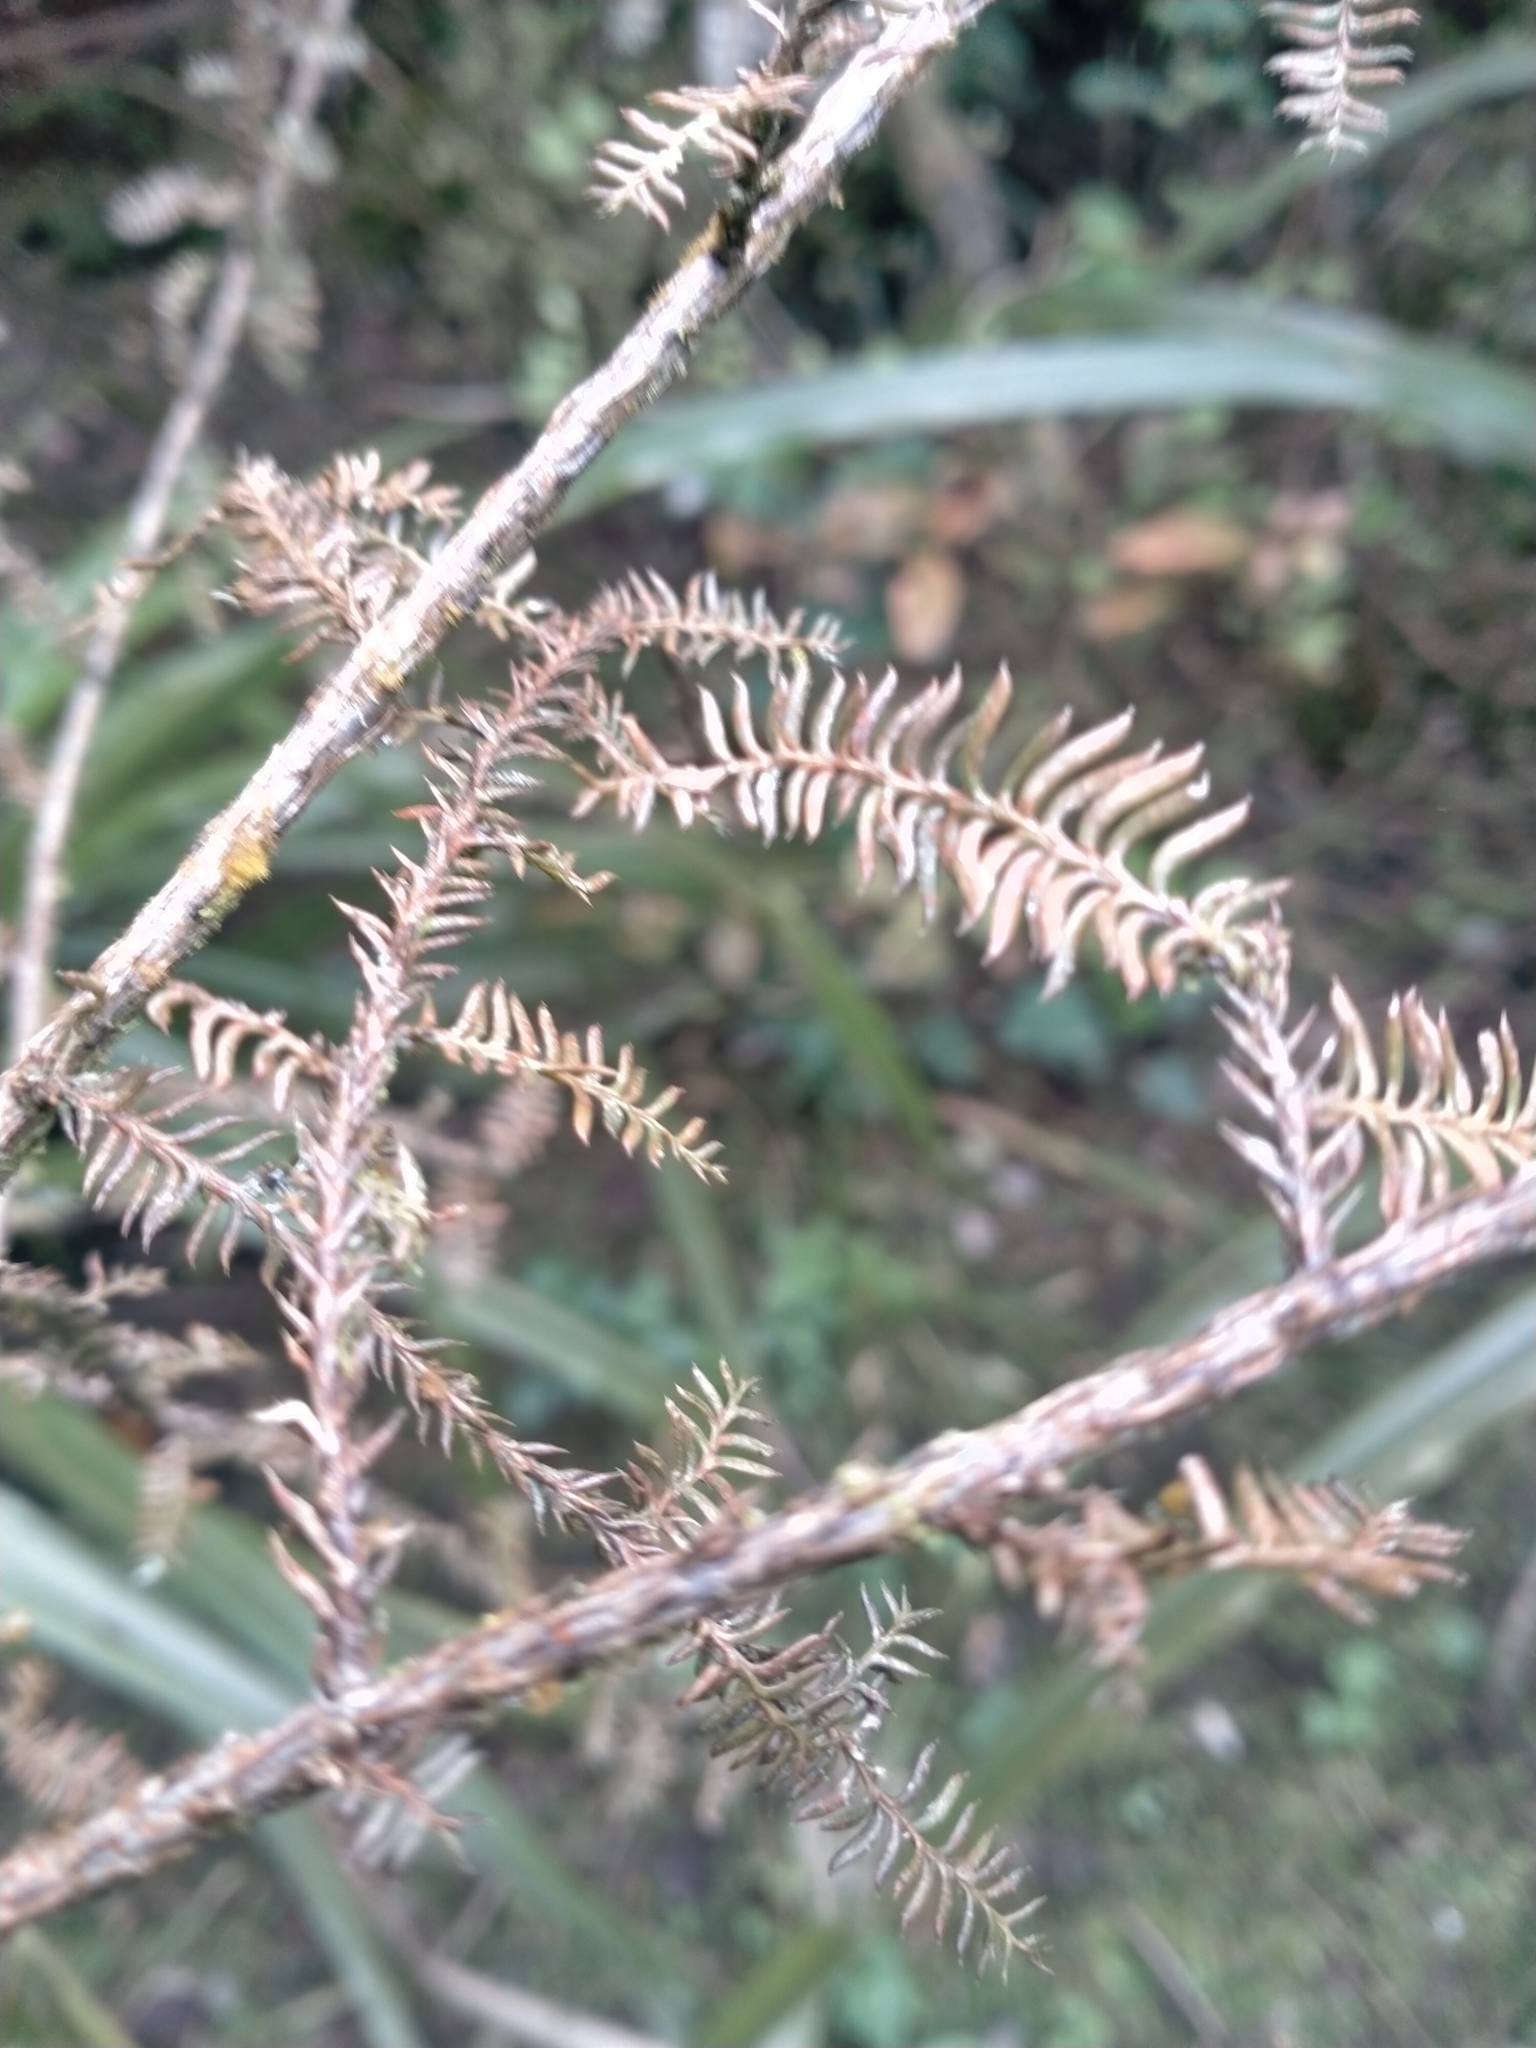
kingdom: Plantae
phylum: Tracheophyta
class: Pinopsida
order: Pinales
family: Podocarpaceae
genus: Dacrycarpus
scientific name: Dacrycarpus dacrydioides
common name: White pine
